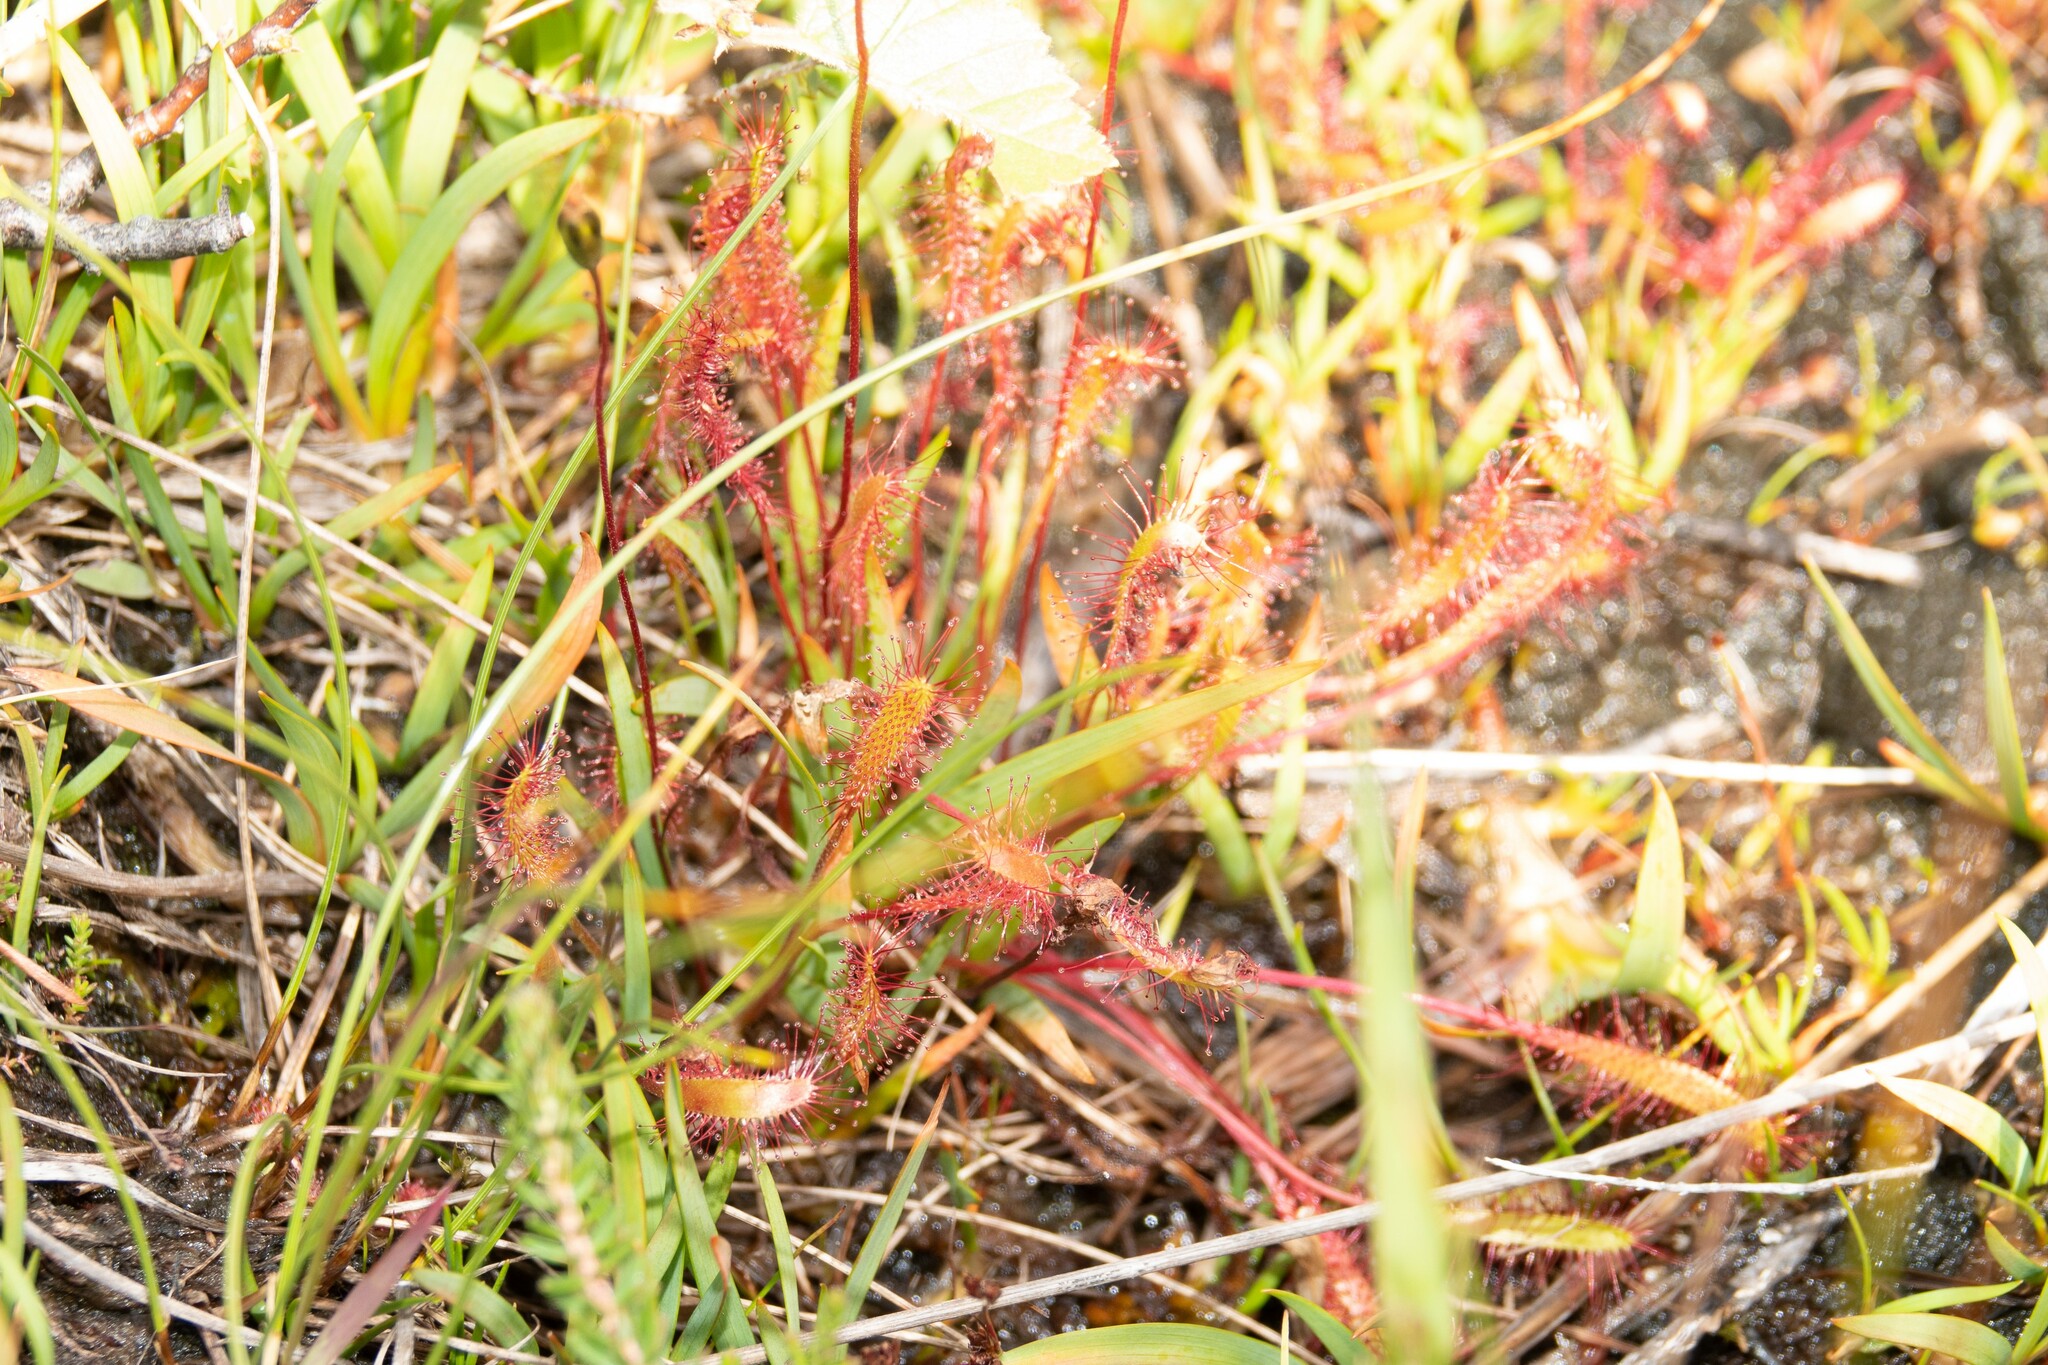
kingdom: Plantae
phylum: Tracheophyta
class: Magnoliopsida
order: Caryophyllales
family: Droseraceae
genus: Drosera
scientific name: Drosera anglica
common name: Great sundew
